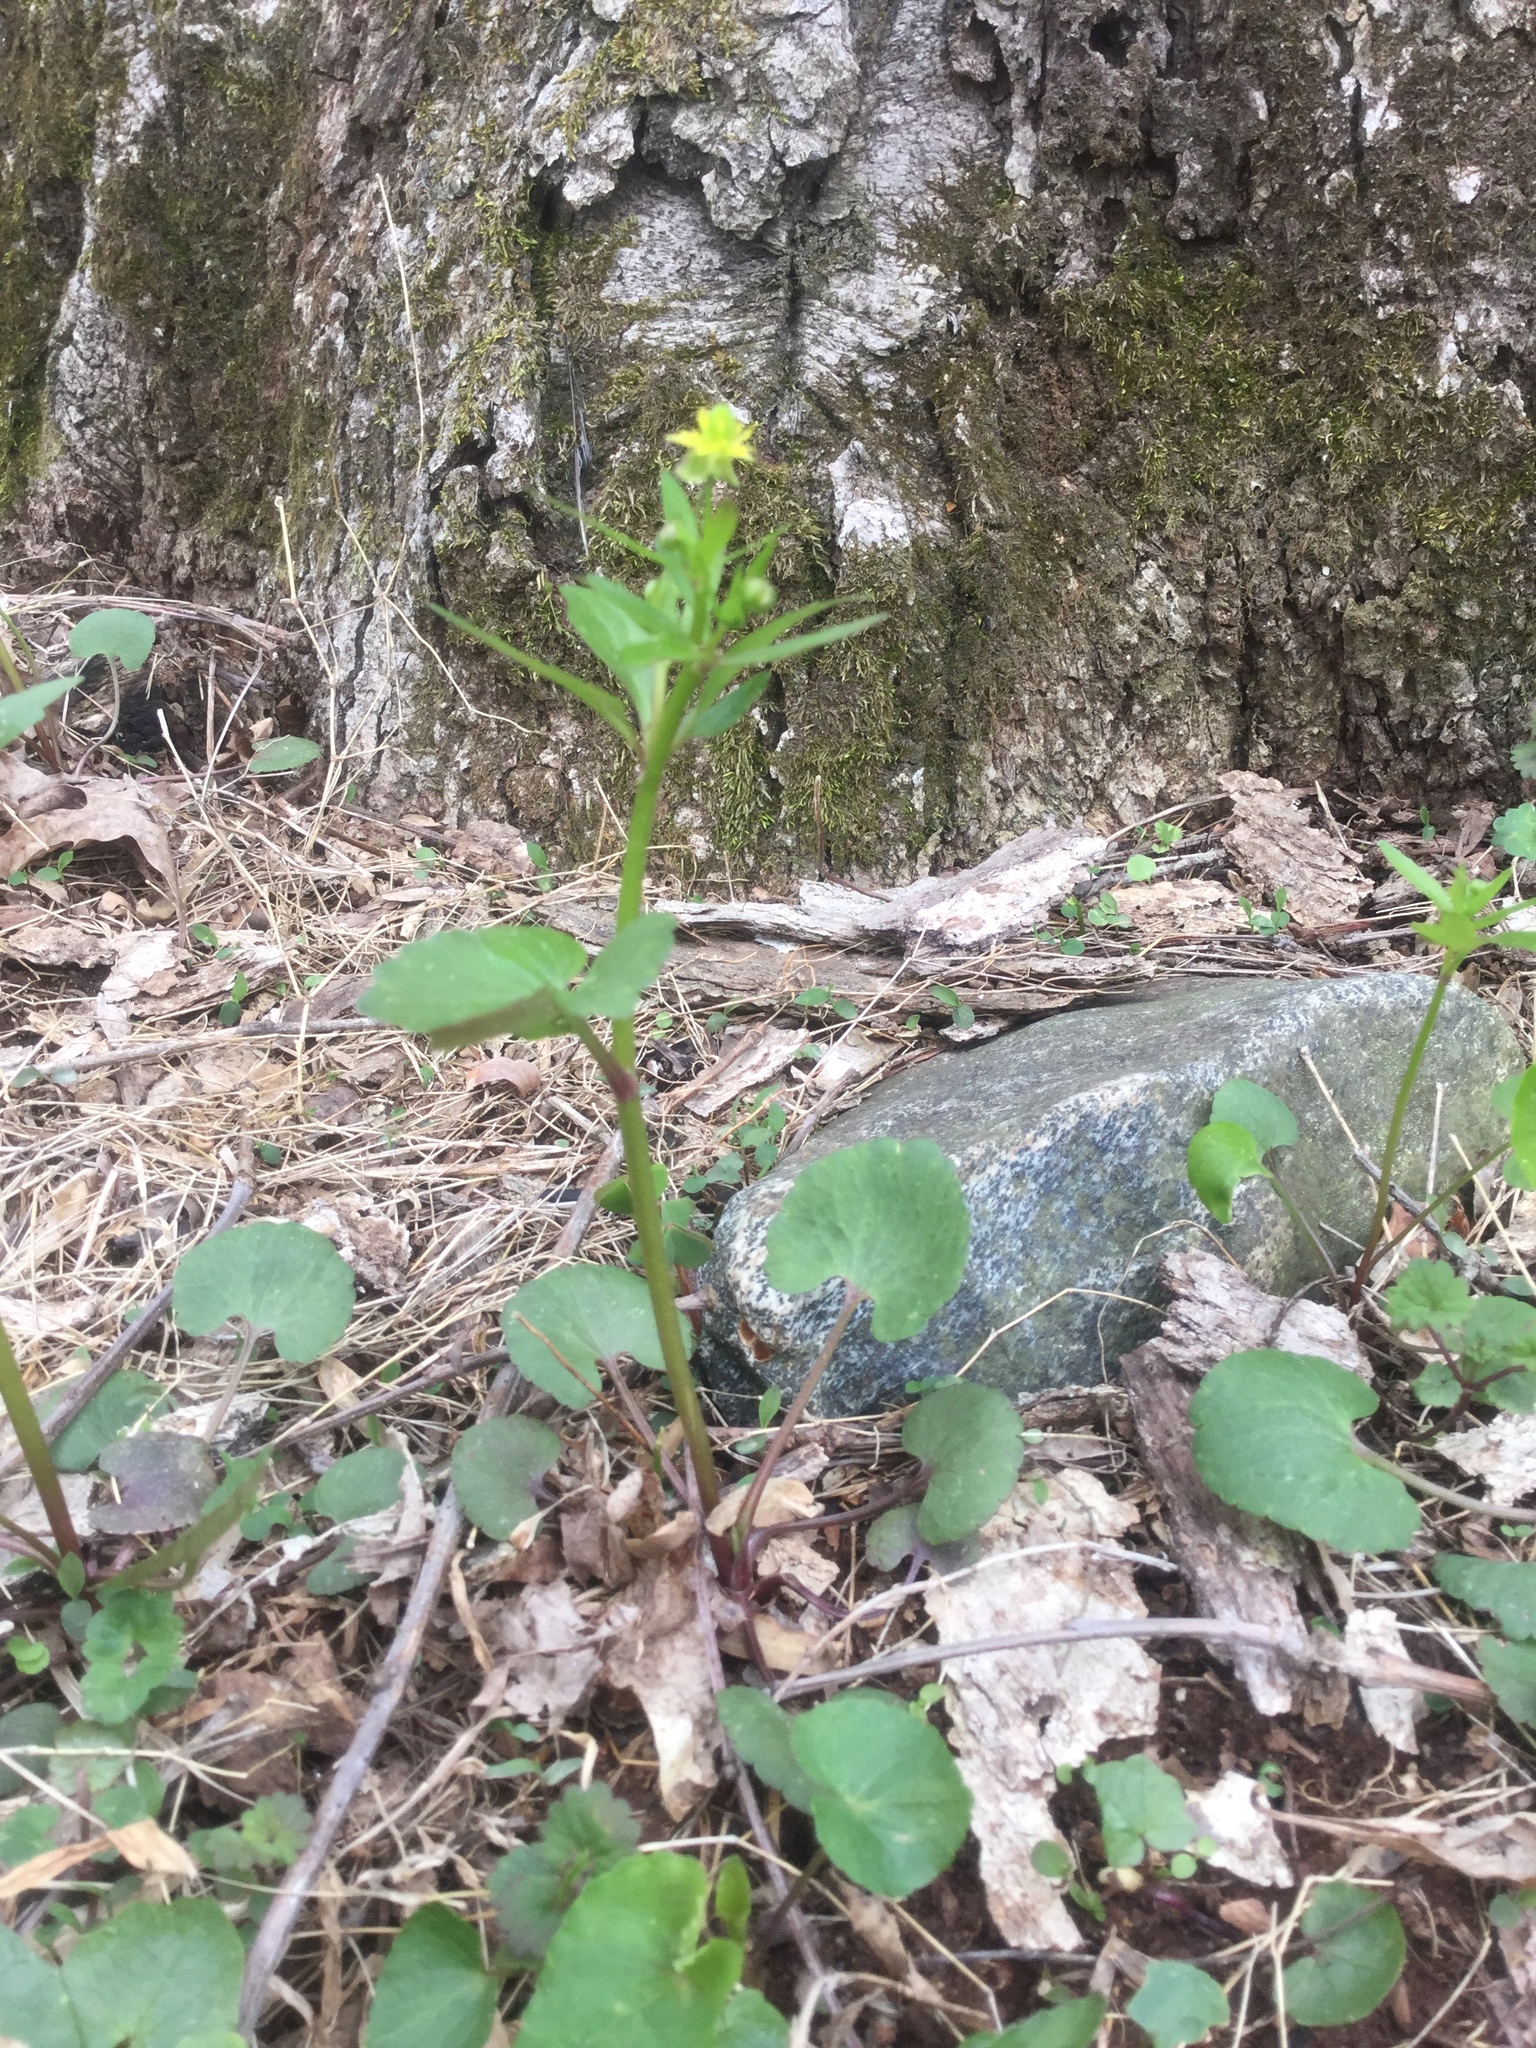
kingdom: Plantae
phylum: Tracheophyta
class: Magnoliopsida
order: Ranunculales
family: Ranunculaceae
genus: Ranunculus
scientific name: Ranunculus abortivus
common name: Early wood buttercup
